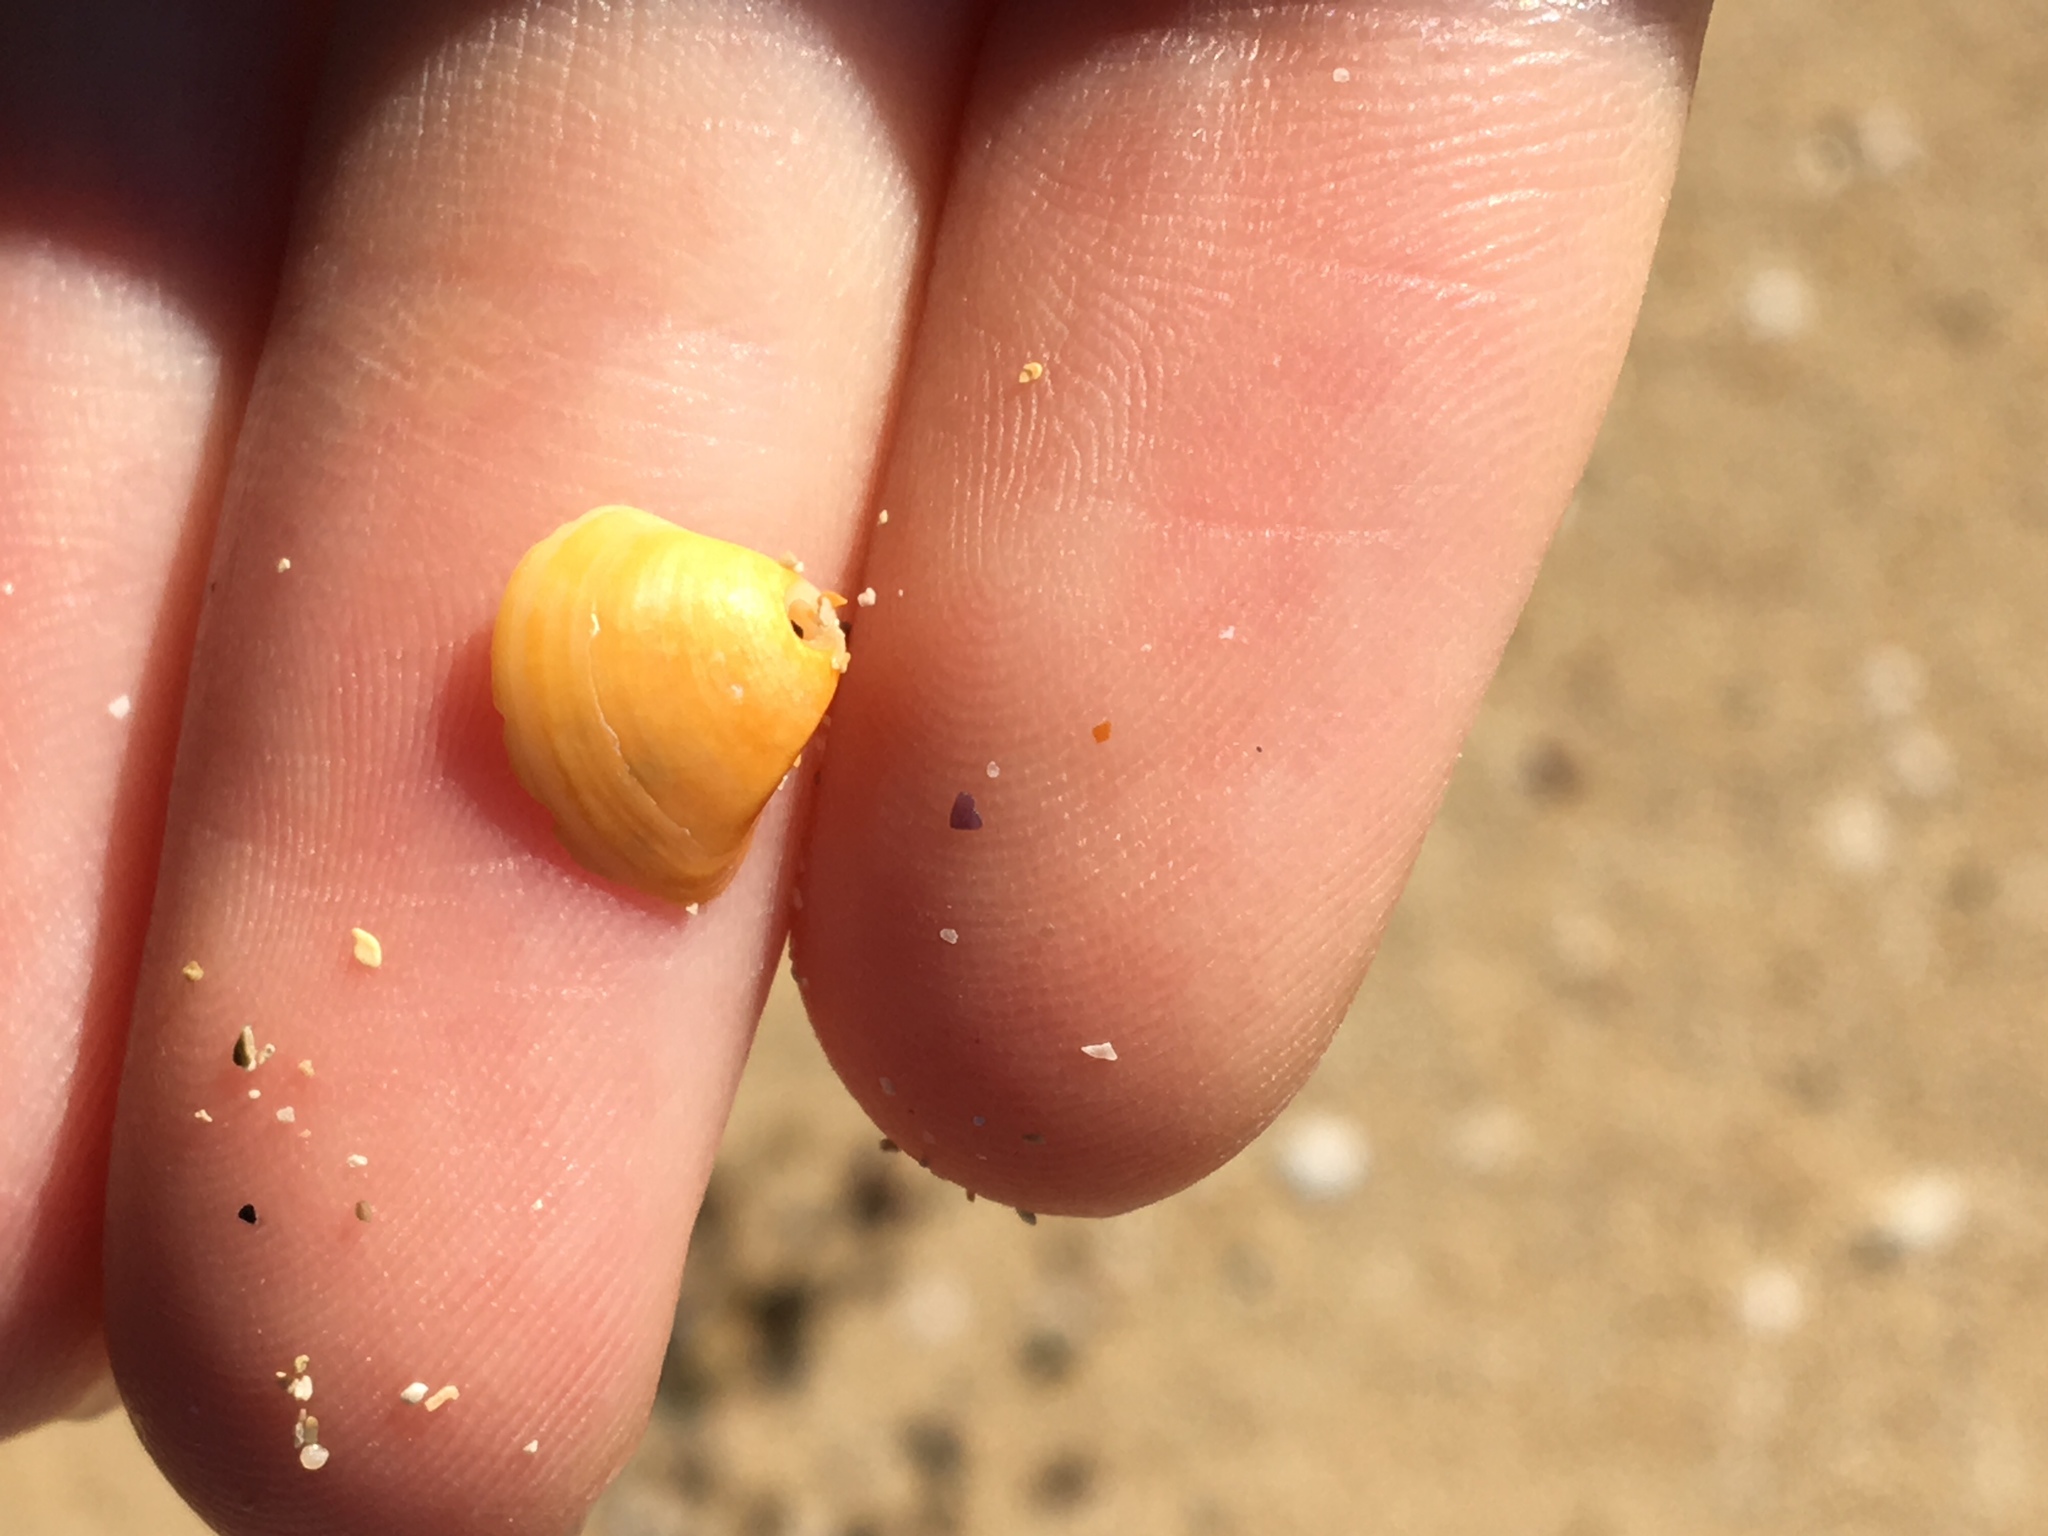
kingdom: Animalia
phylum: Mollusca
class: Bivalvia
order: Venerida
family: Mactridae
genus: Spisula
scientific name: Spisula trigonella
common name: Trigonal mactra
